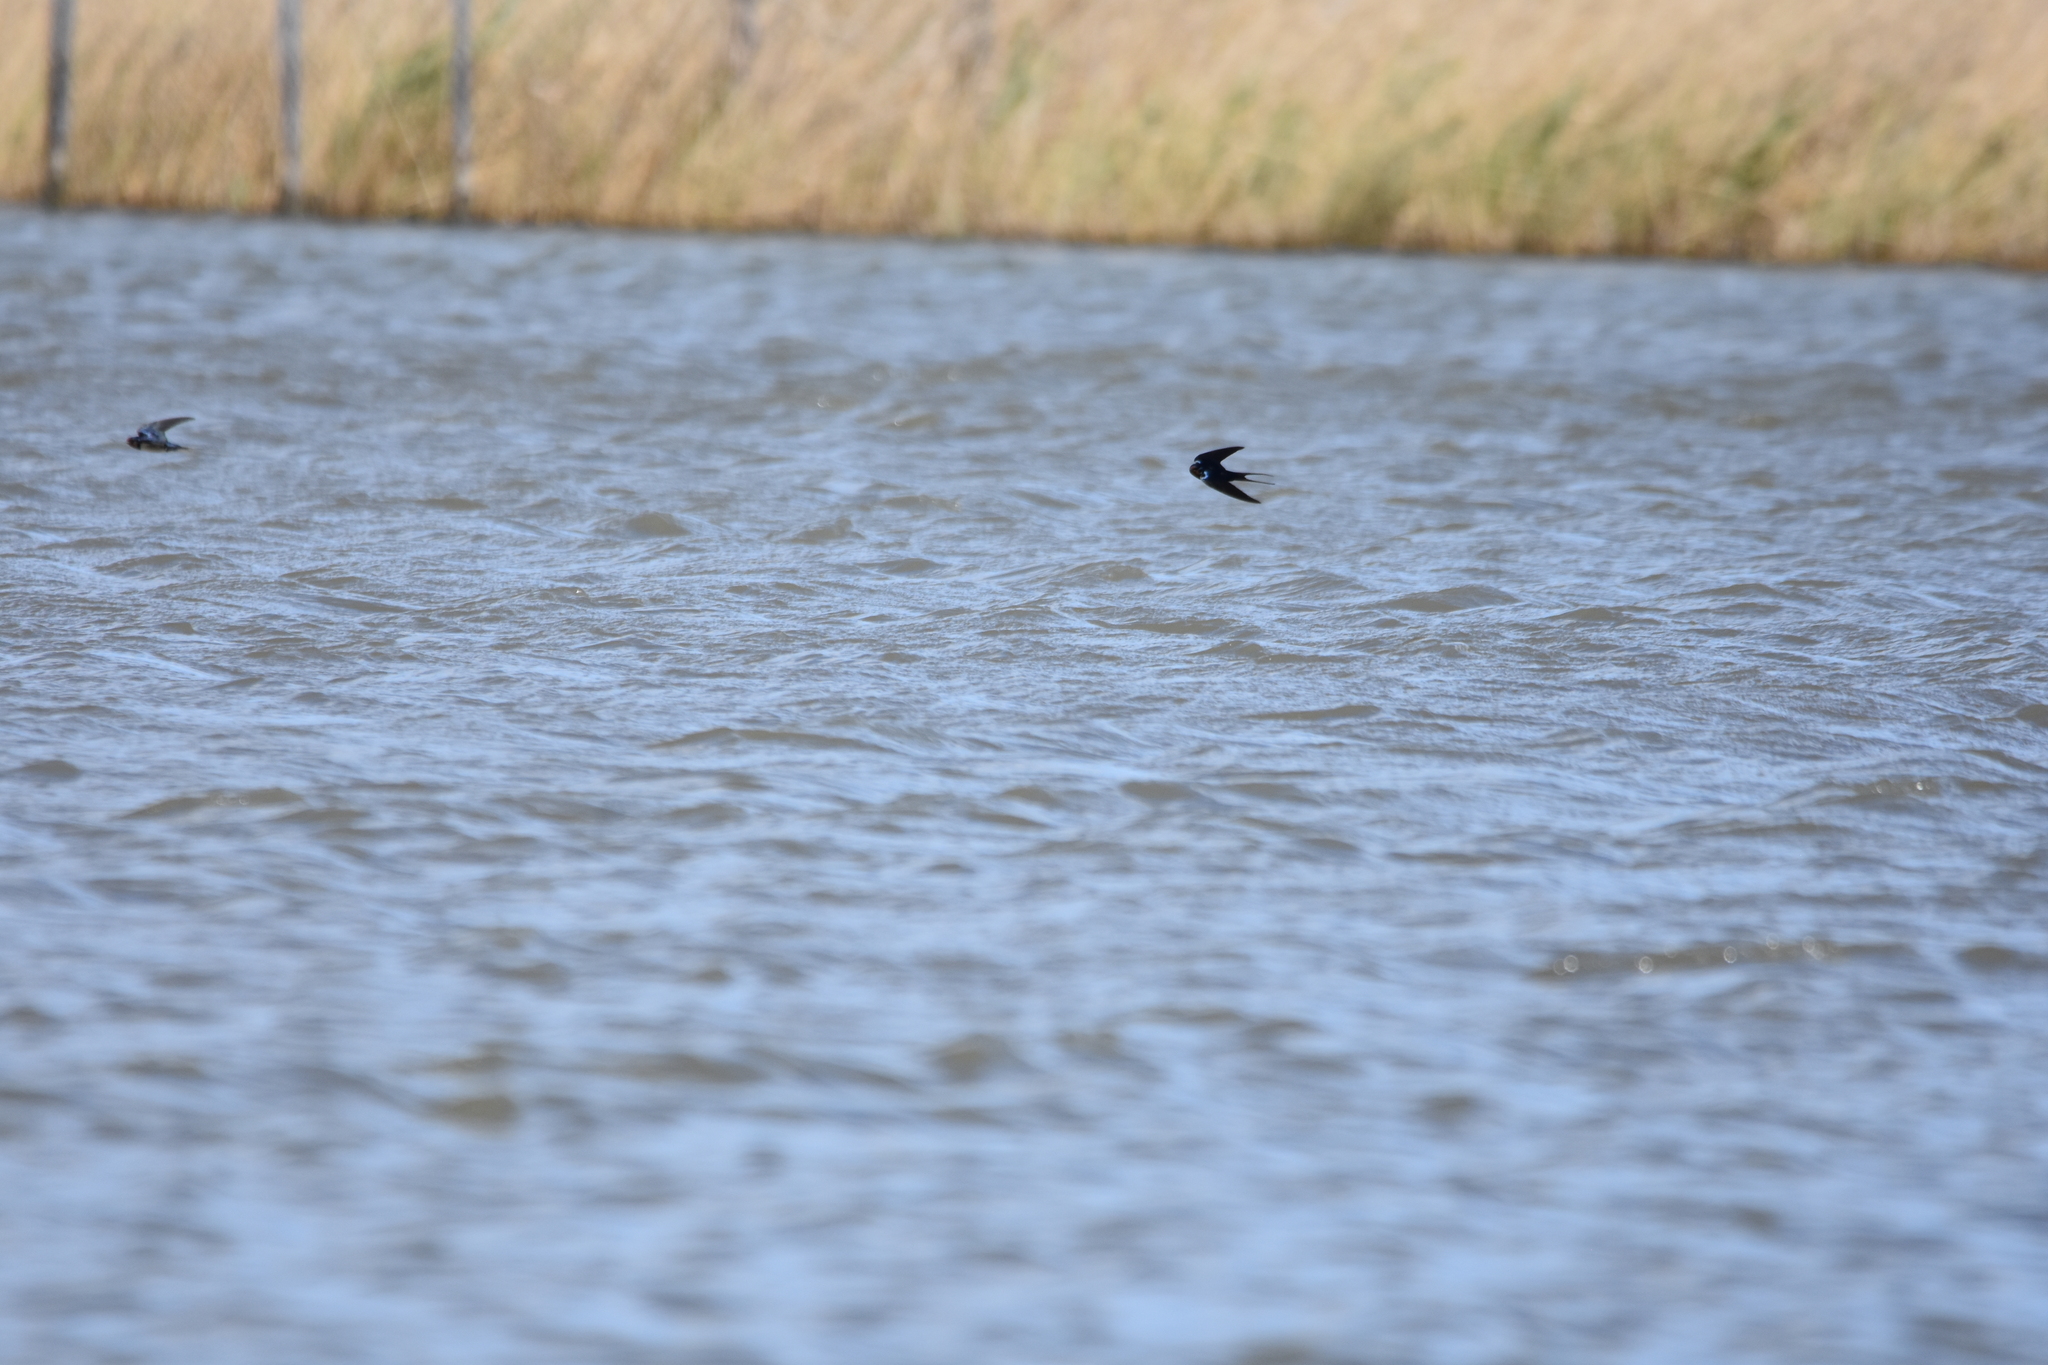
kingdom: Animalia
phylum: Chordata
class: Aves
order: Passeriformes
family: Hirundinidae
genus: Hirundo
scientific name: Hirundo rustica
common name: Barn swallow
